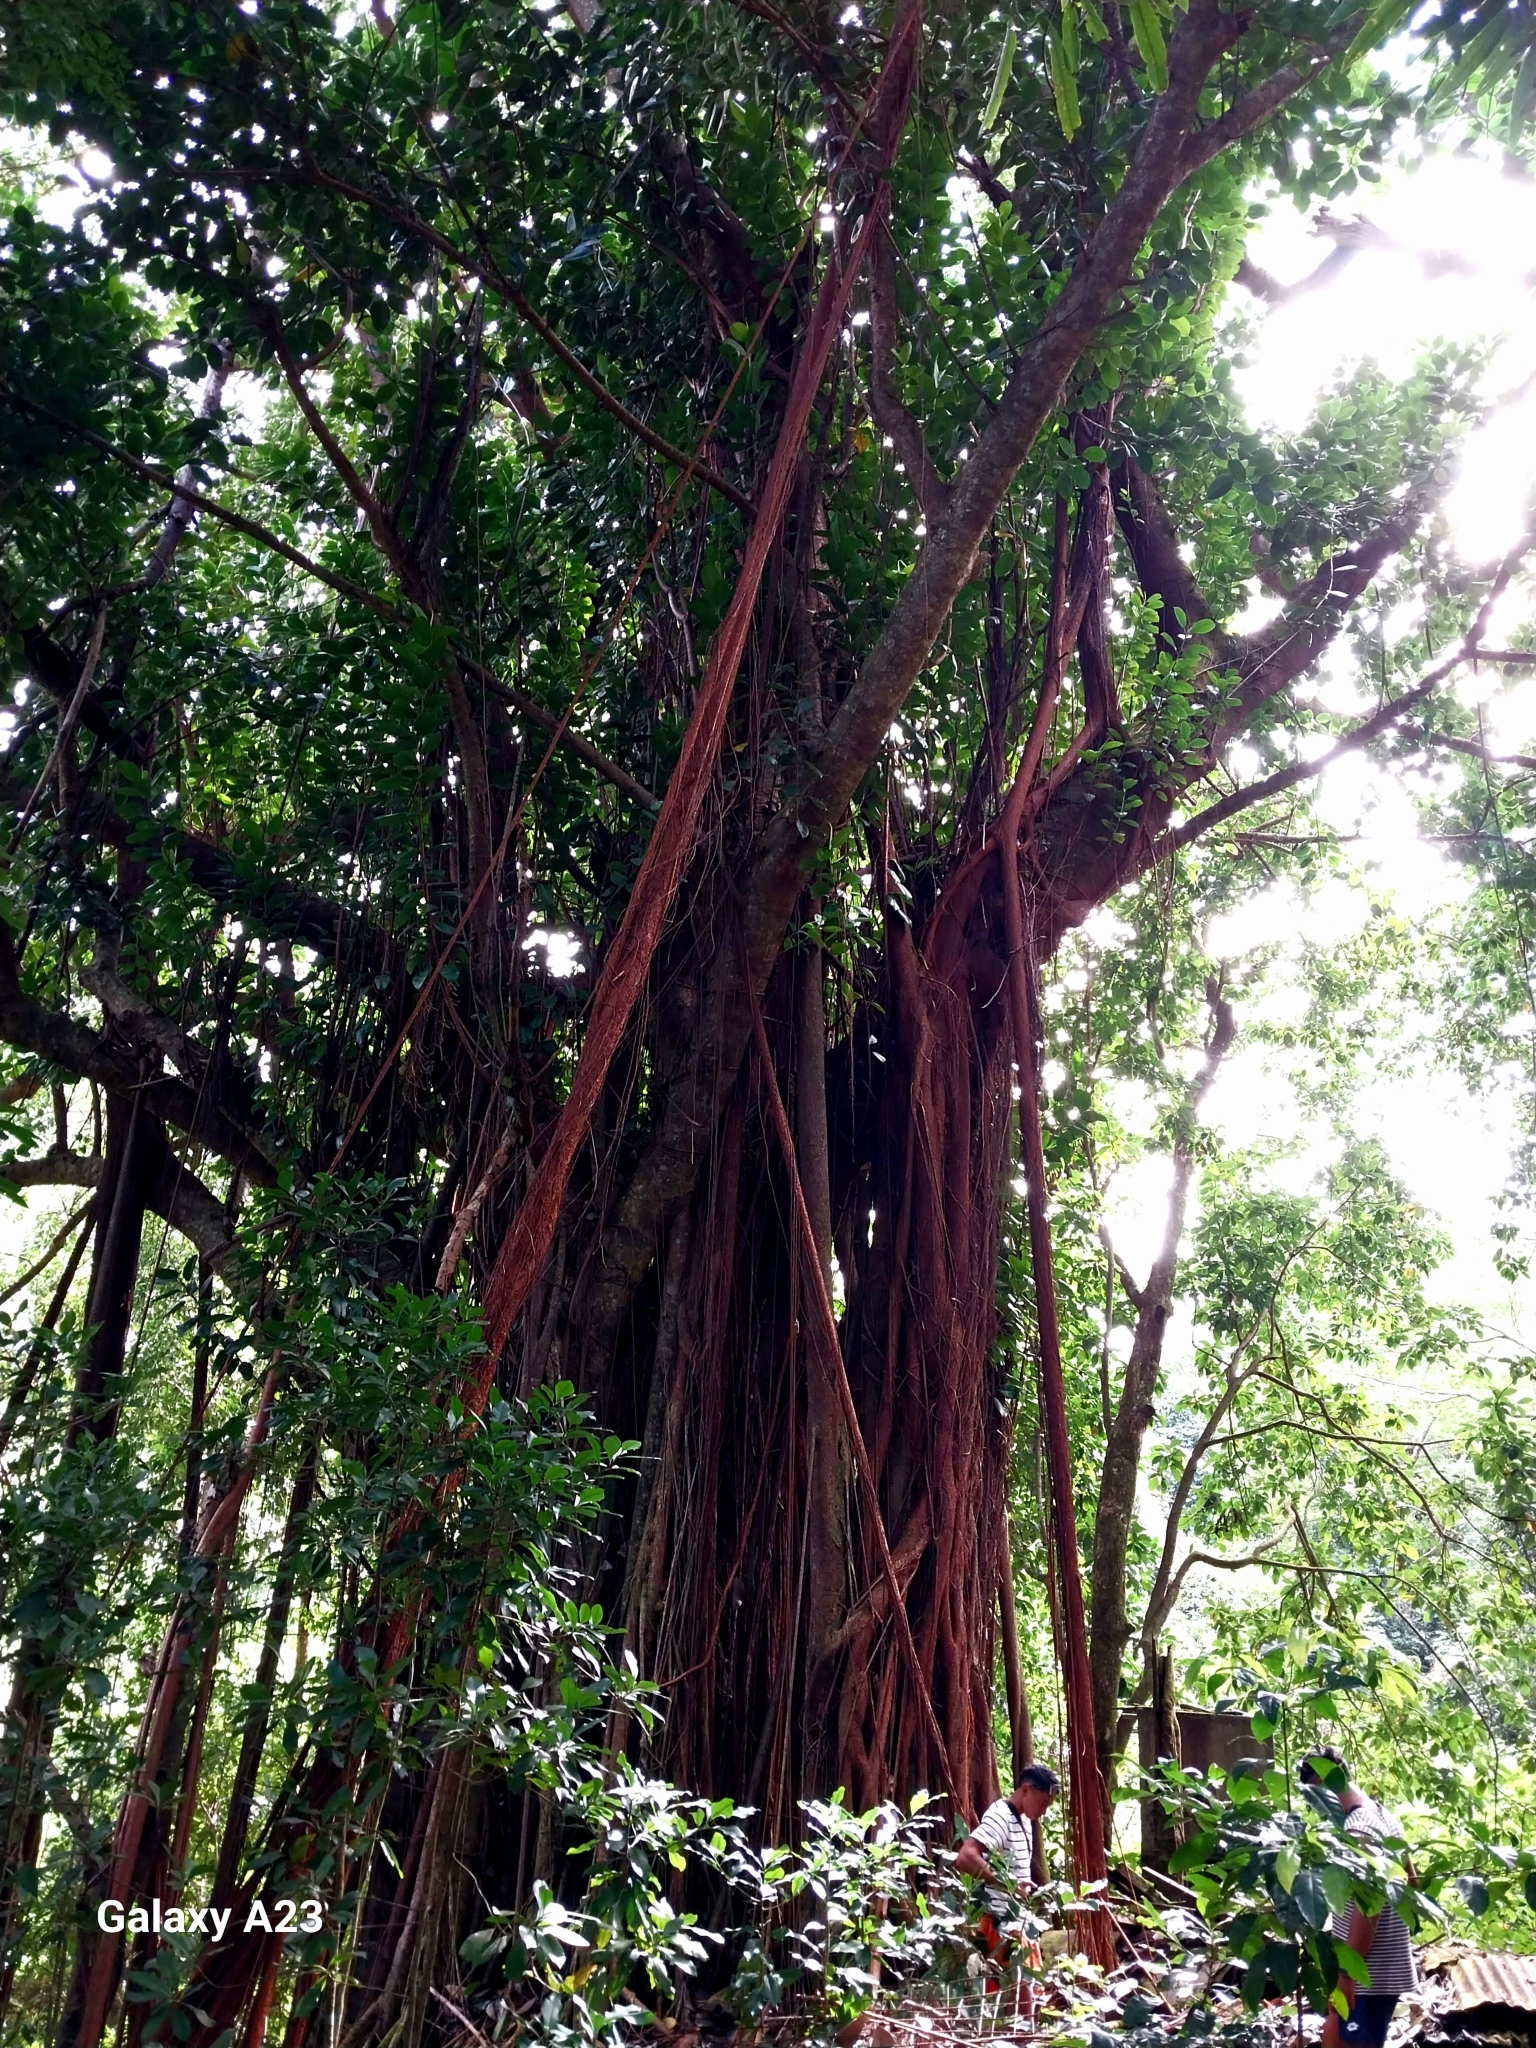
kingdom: Plantae
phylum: Tracheophyta
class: Magnoliopsida
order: Rosales
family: Moraceae
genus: Ficus
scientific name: Ficus prolixa
